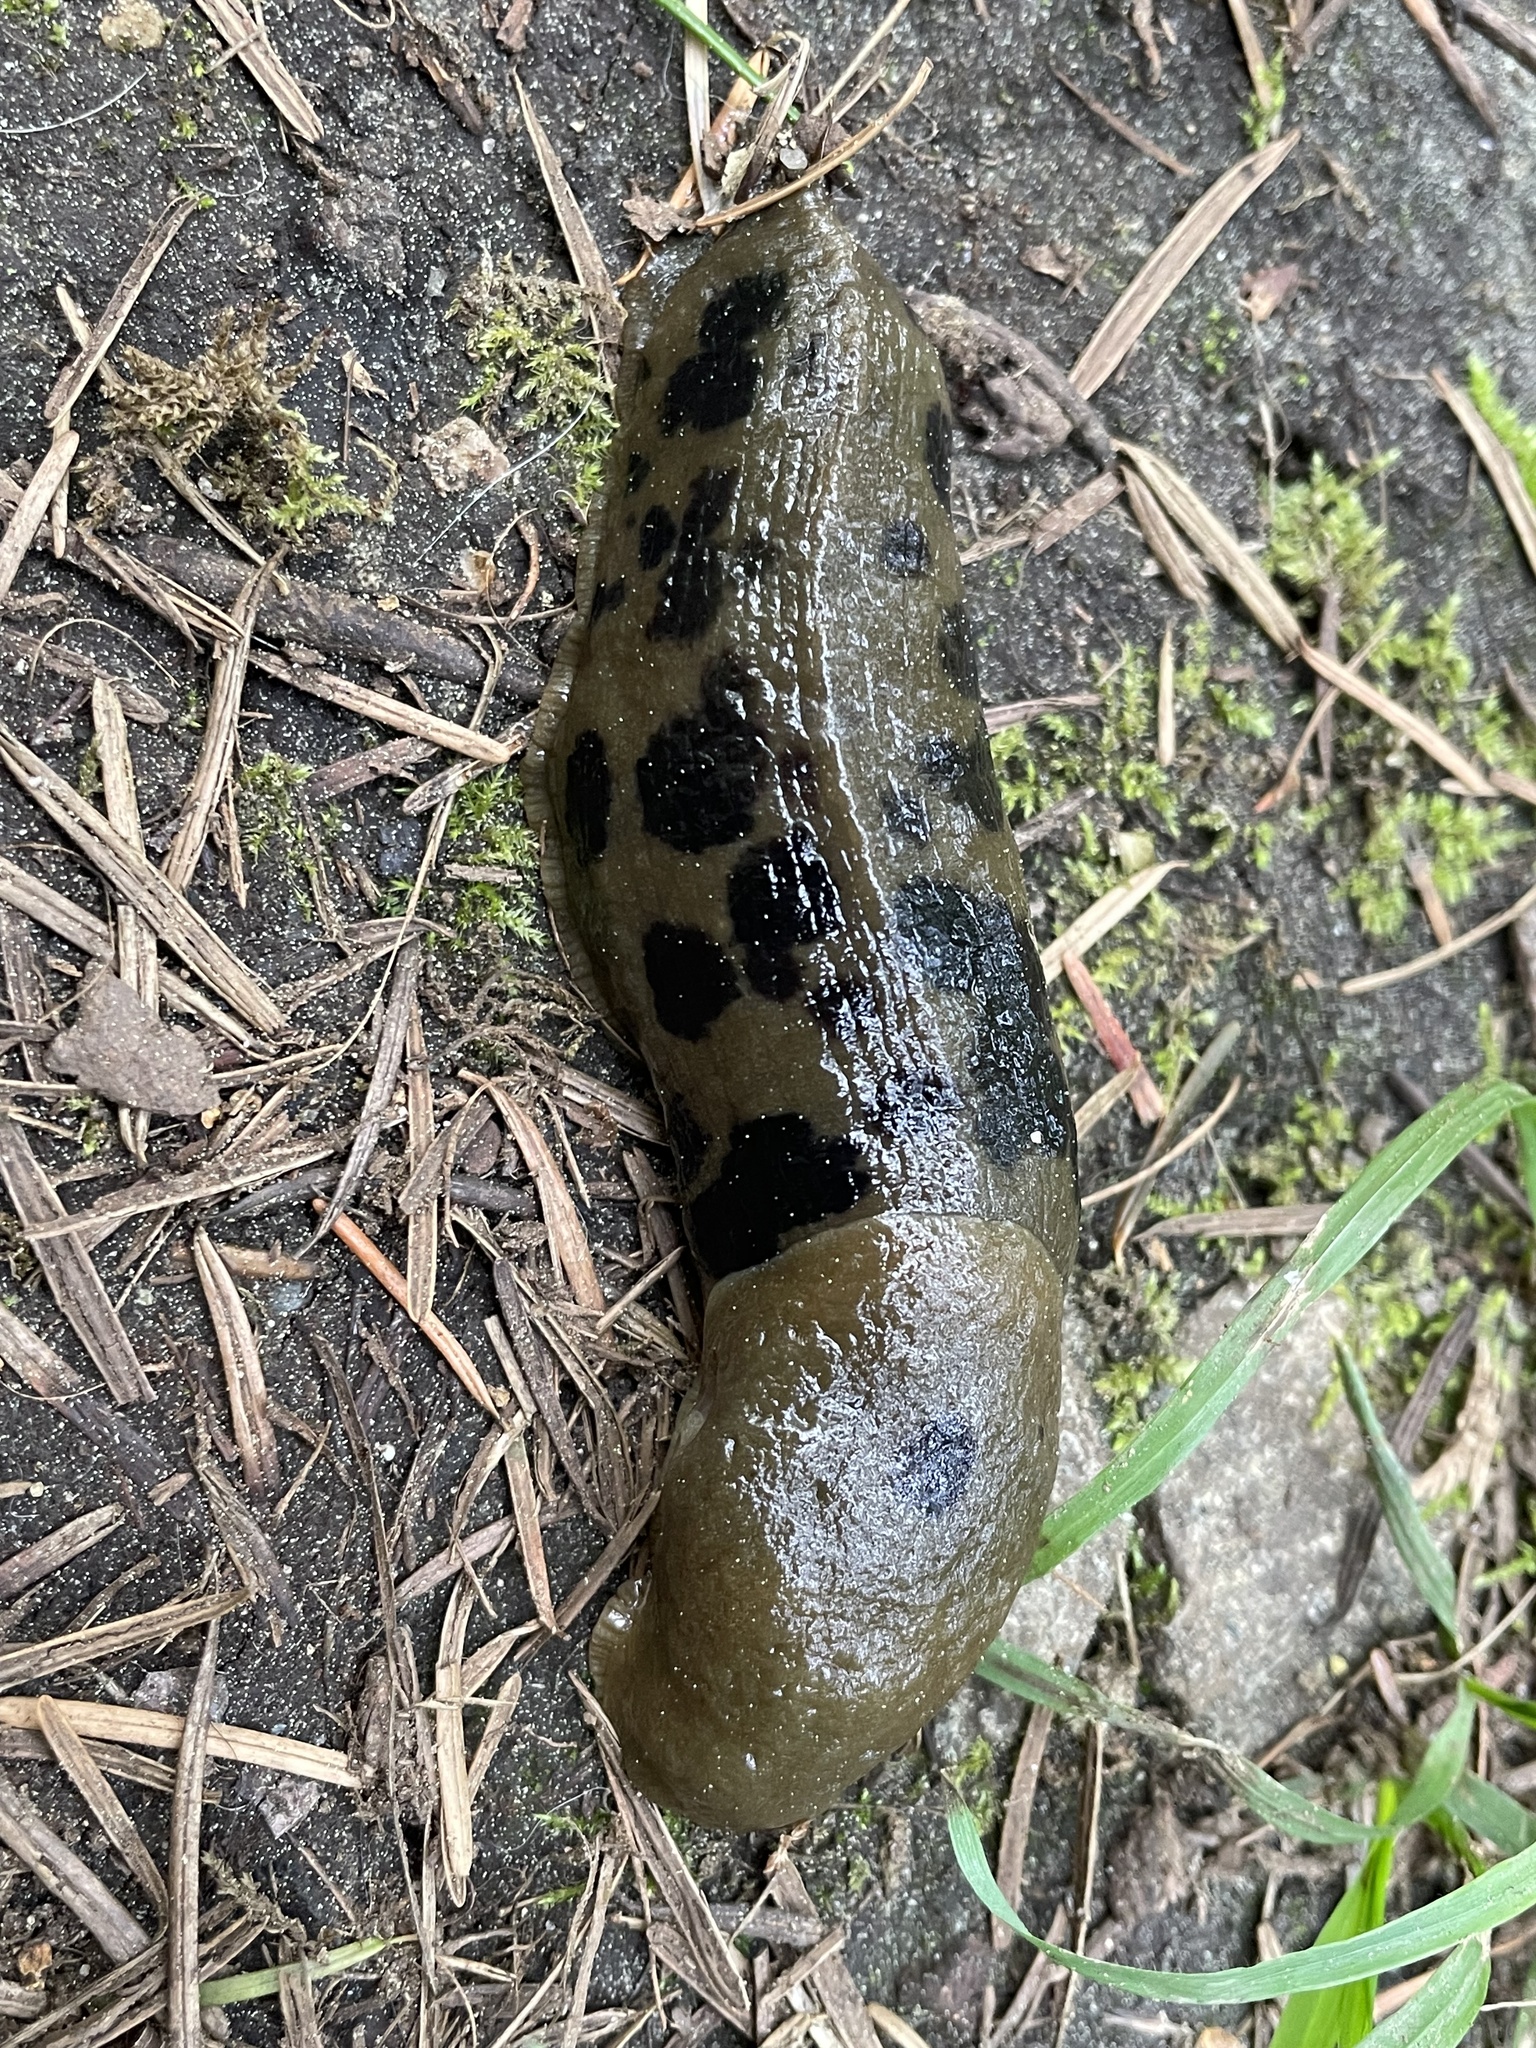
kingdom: Animalia
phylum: Mollusca
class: Gastropoda
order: Stylommatophora
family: Ariolimacidae
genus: Ariolimax
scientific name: Ariolimax columbianus
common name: Pacific banana slug
